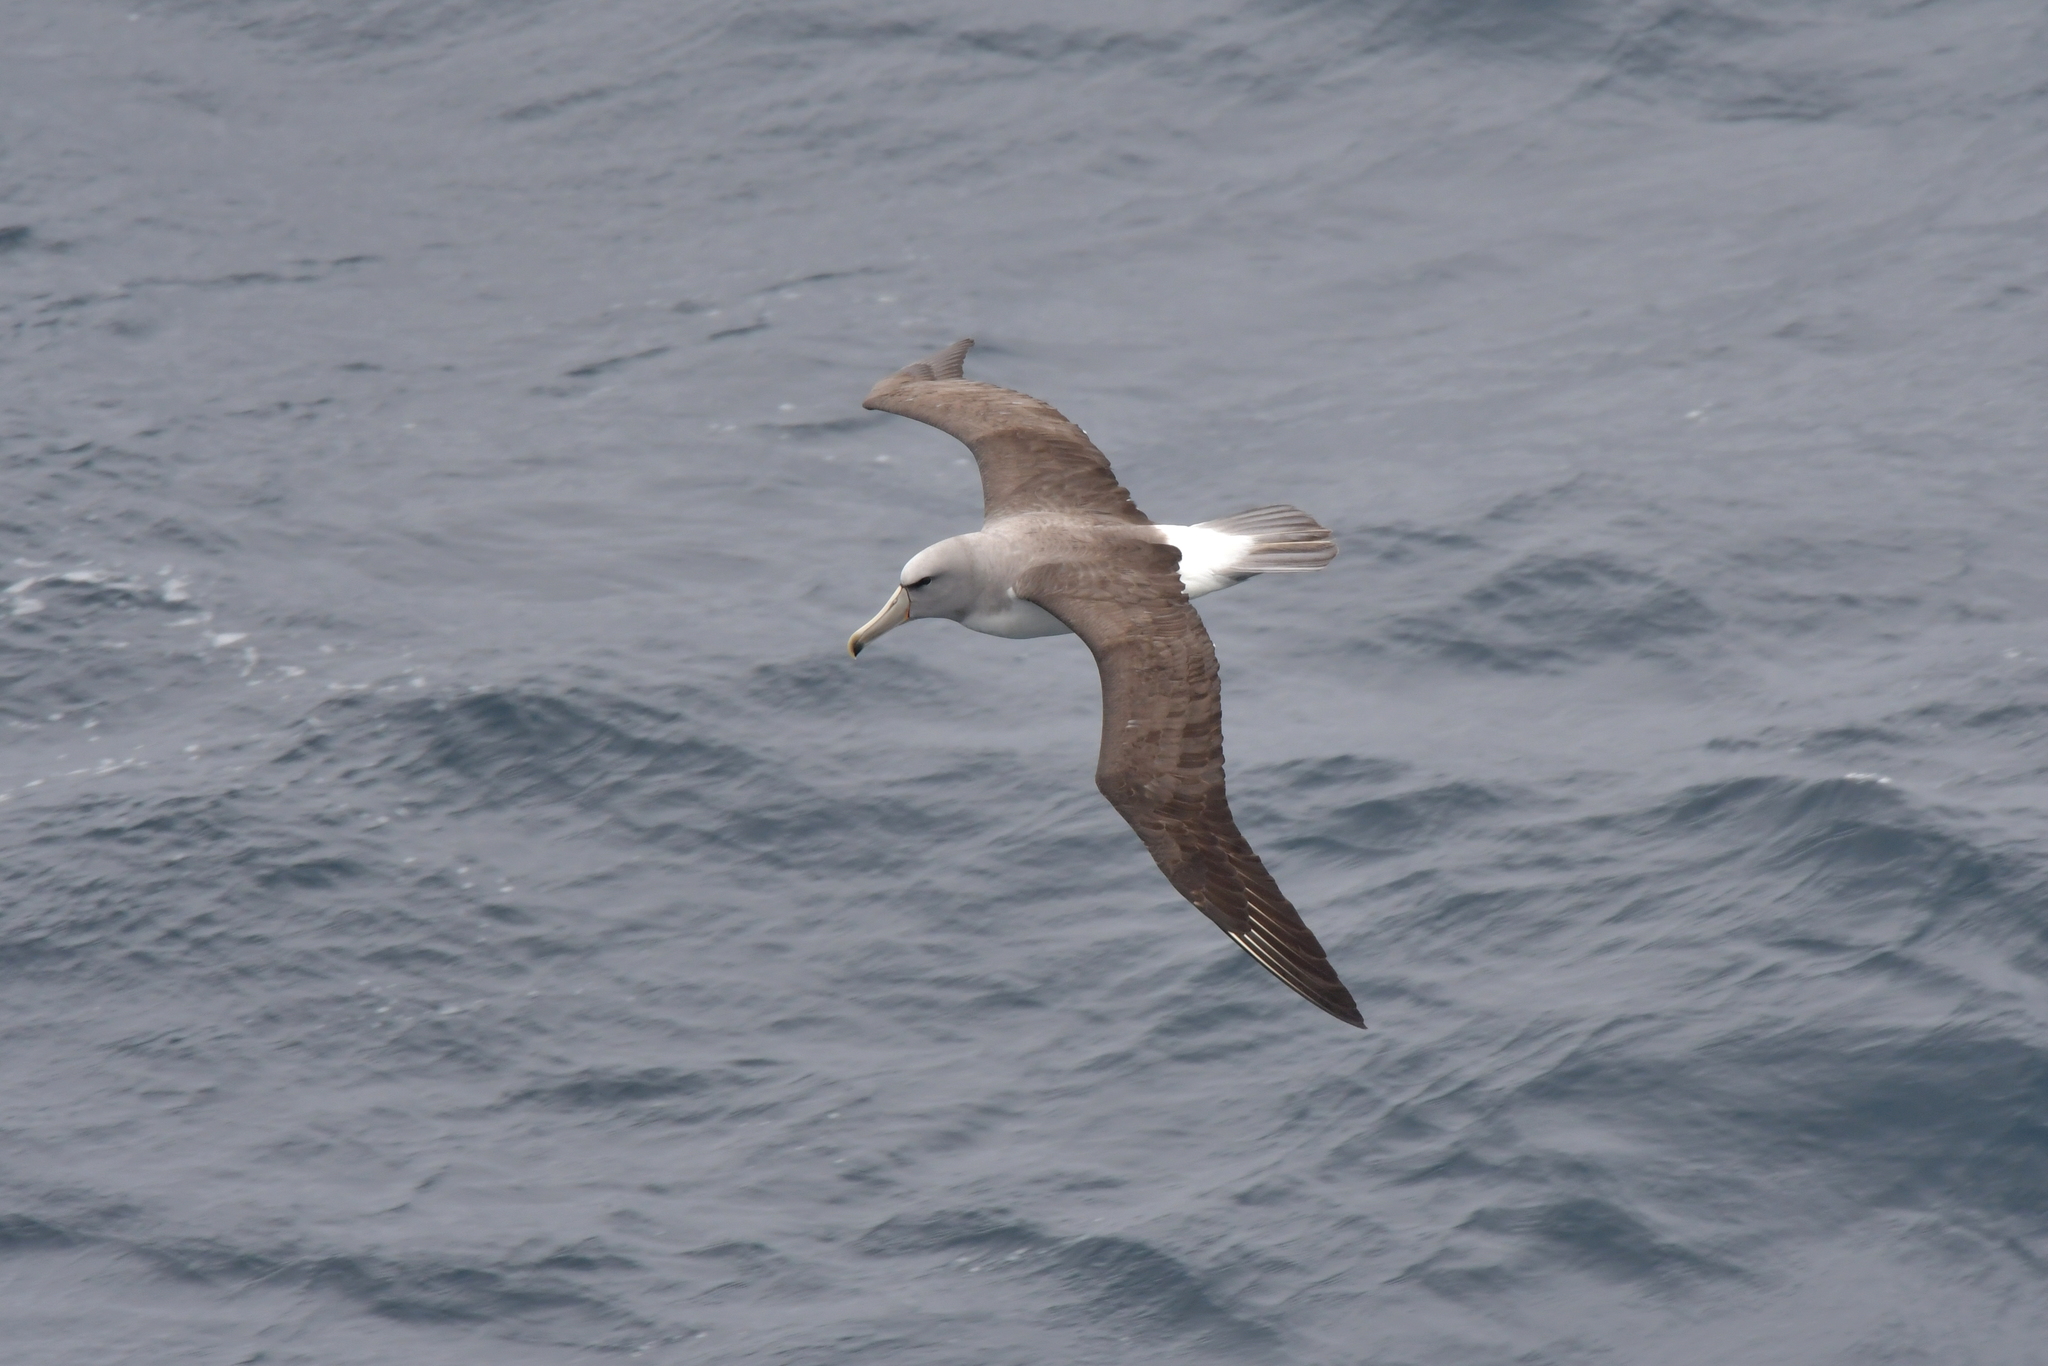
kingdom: Animalia
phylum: Chordata
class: Aves
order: Procellariiformes
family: Diomedeidae
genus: Thalassarche
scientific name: Thalassarche salvini
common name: Salvin's albatross
